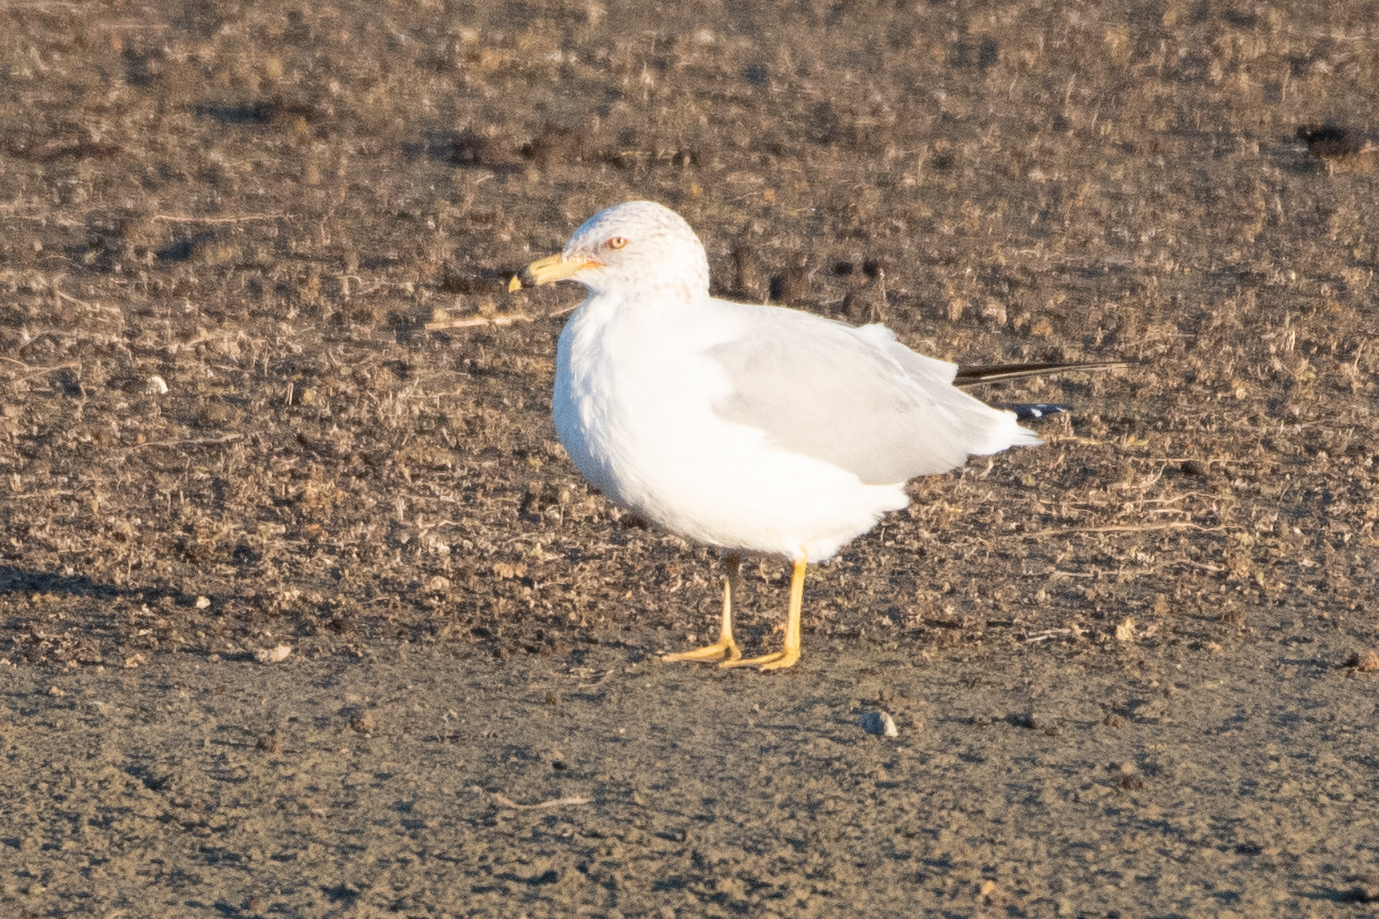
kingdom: Animalia
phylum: Chordata
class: Aves
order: Charadriiformes
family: Laridae
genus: Larus
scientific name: Larus delawarensis
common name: Ring-billed gull
